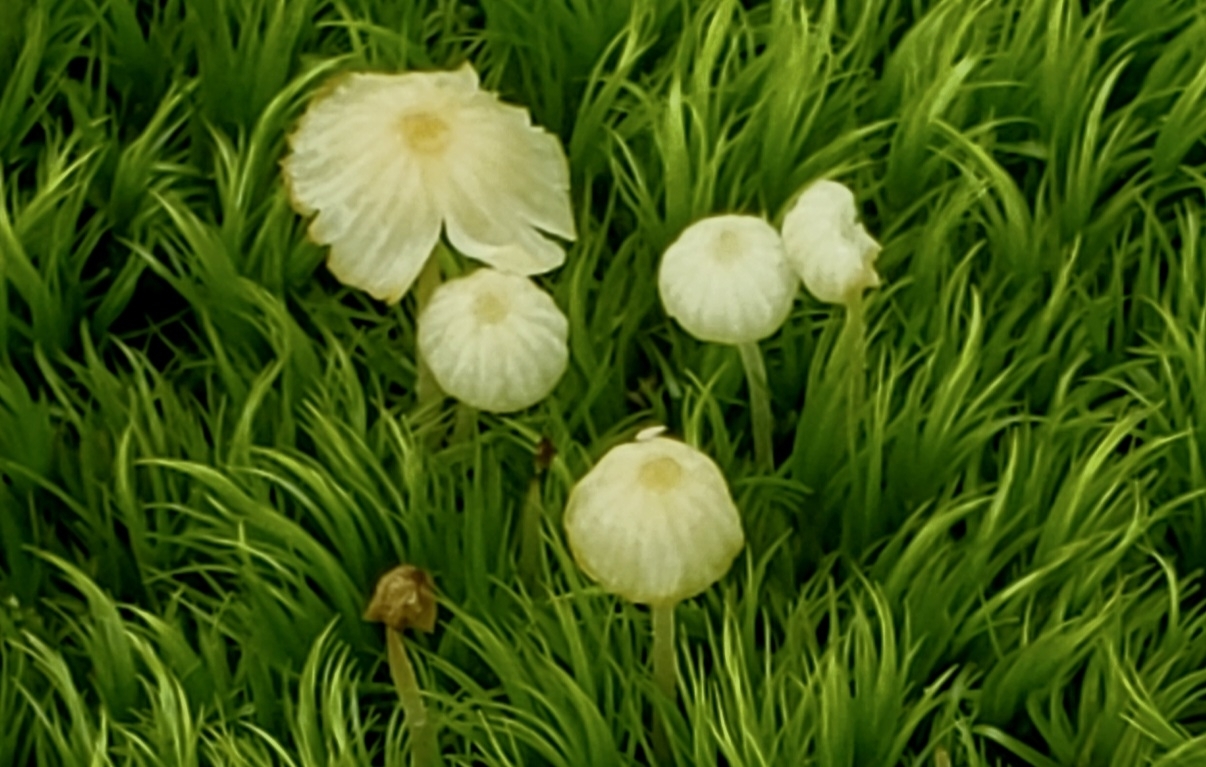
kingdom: Fungi
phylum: Basidiomycota
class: Agaricomycetes
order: Agaricales
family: Psathyrellaceae
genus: Parasola
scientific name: Parasola plicatilis
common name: Pleated inkcap
